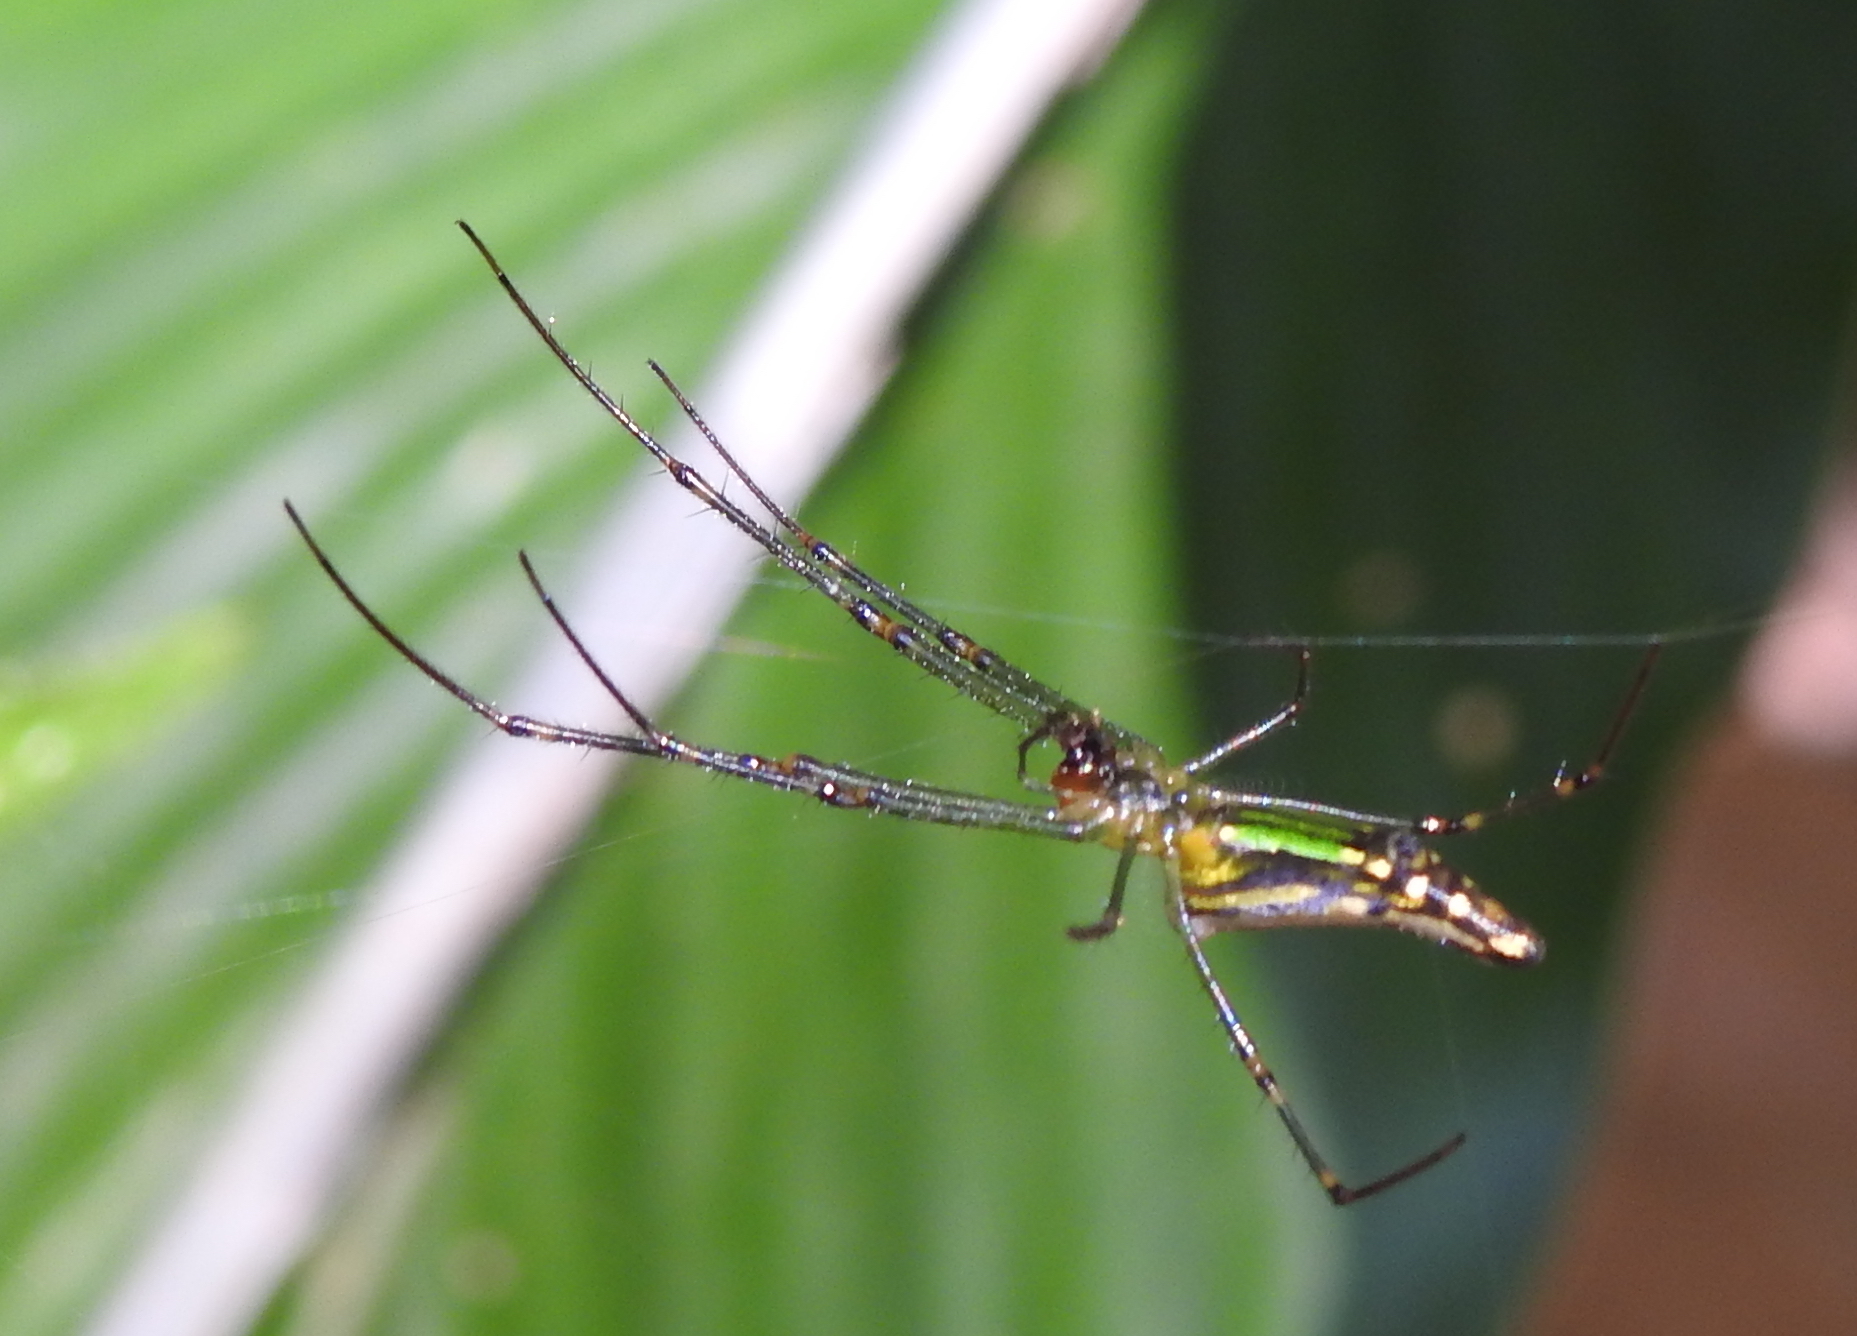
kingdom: Animalia
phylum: Arthropoda
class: Arachnida
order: Araneae
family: Tetragnathidae
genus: Leucauge
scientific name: Leucauge decorata
